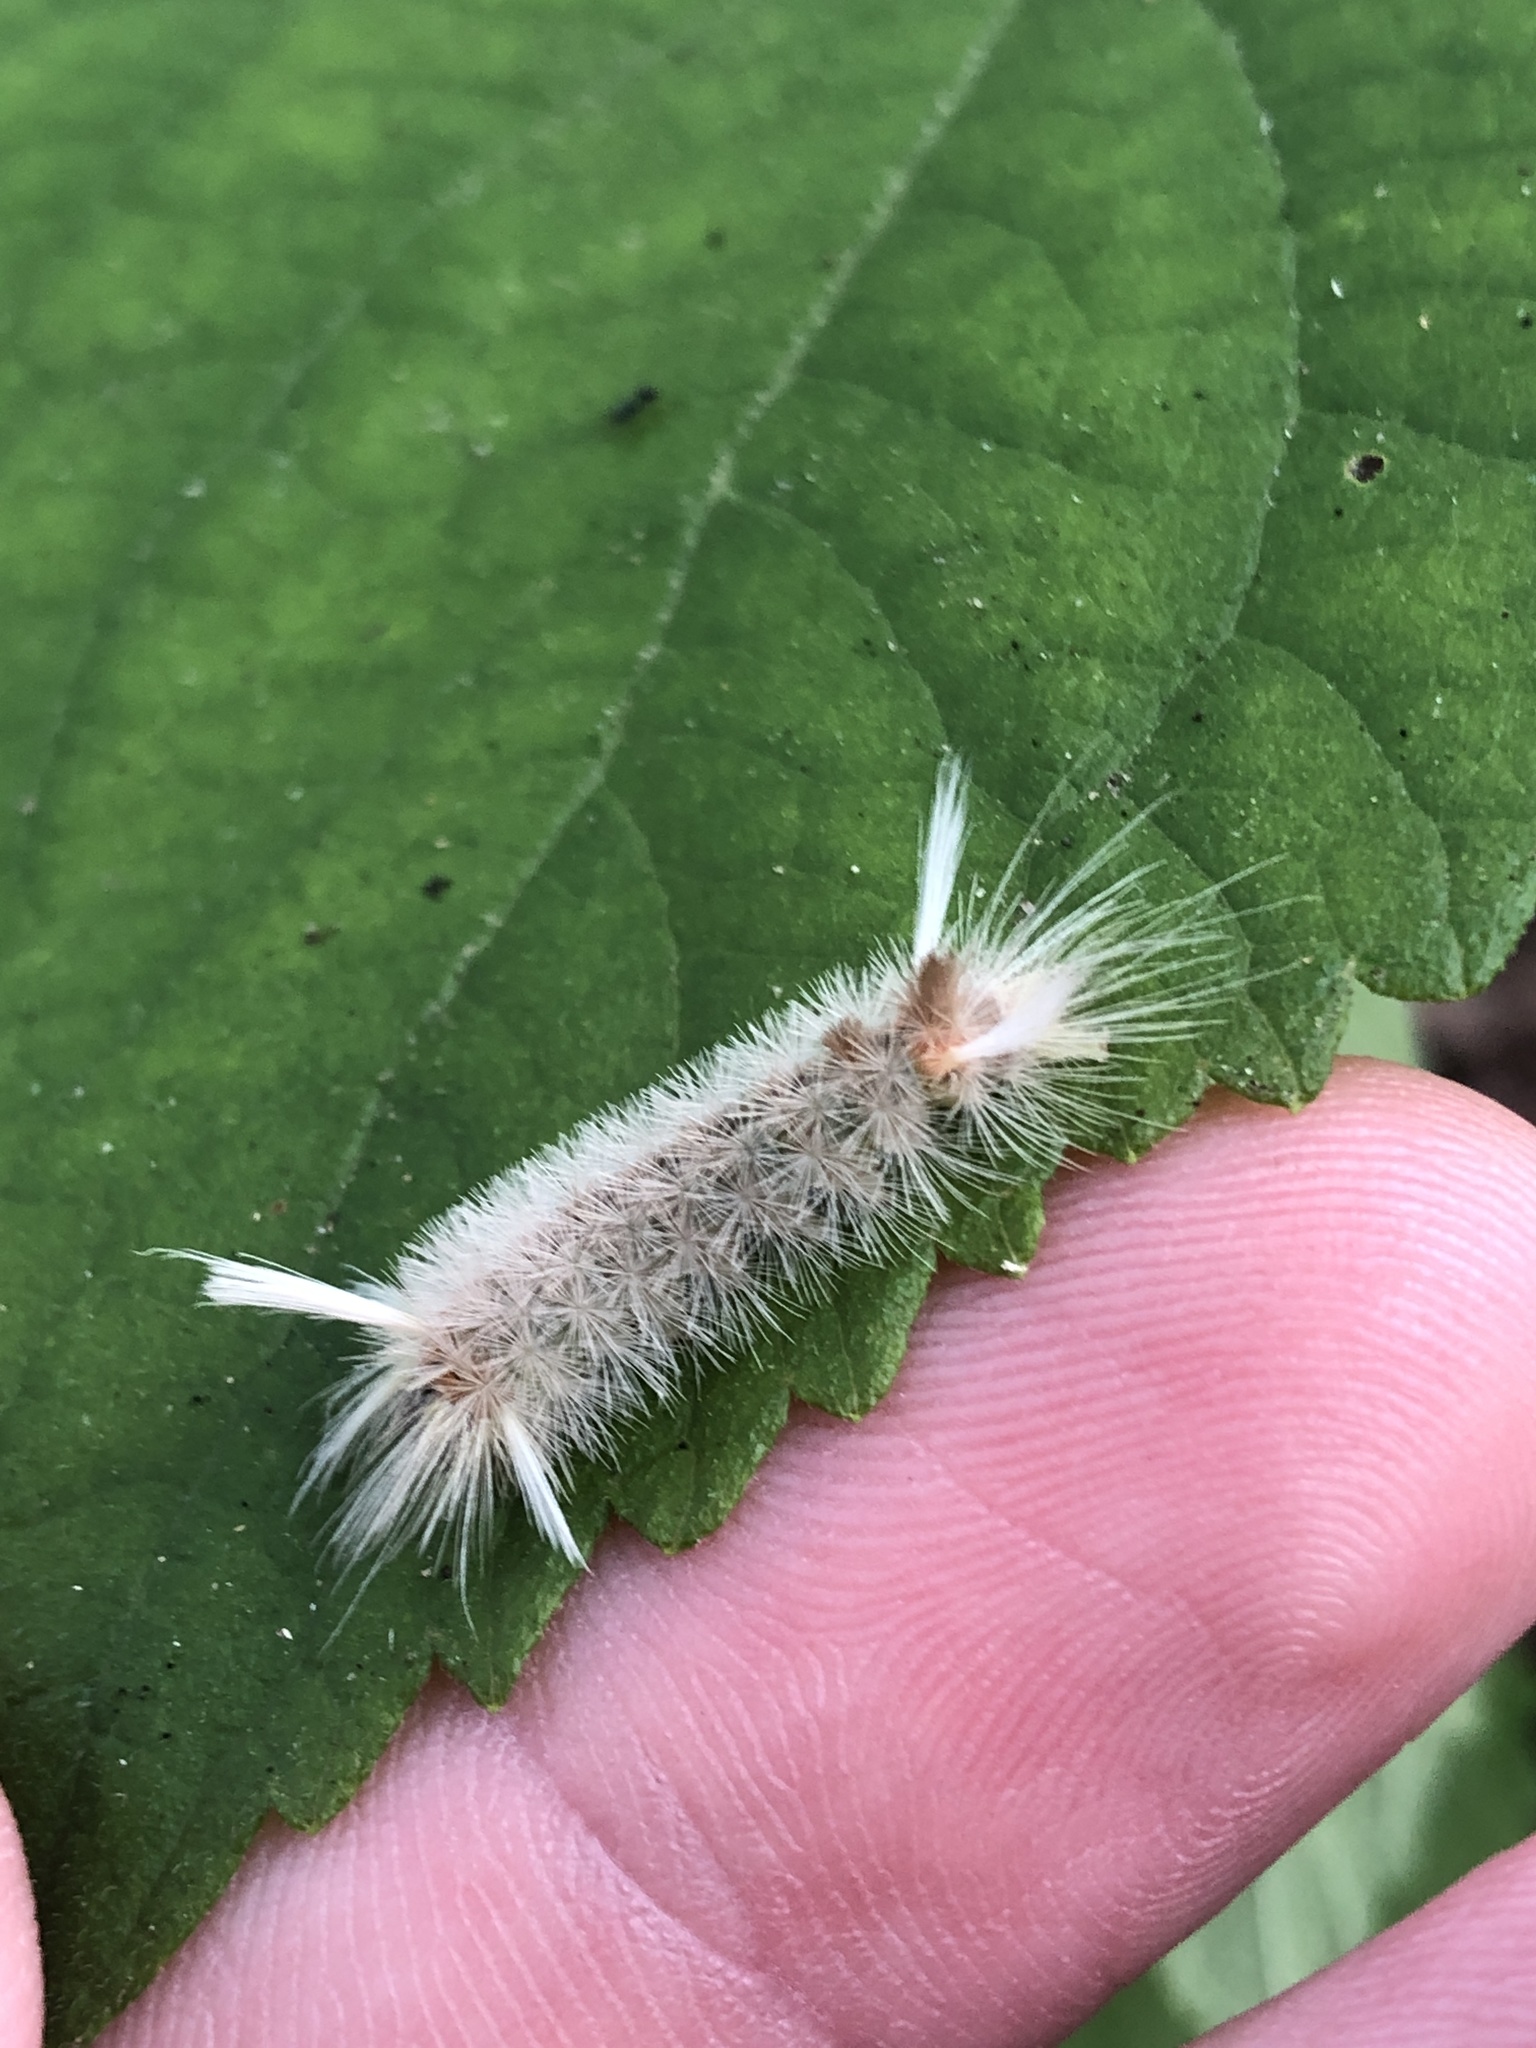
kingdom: Animalia
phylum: Arthropoda
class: Insecta
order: Lepidoptera
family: Erebidae
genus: Halysidota
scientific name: Halysidota tessellaris
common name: Banded tussock moth
